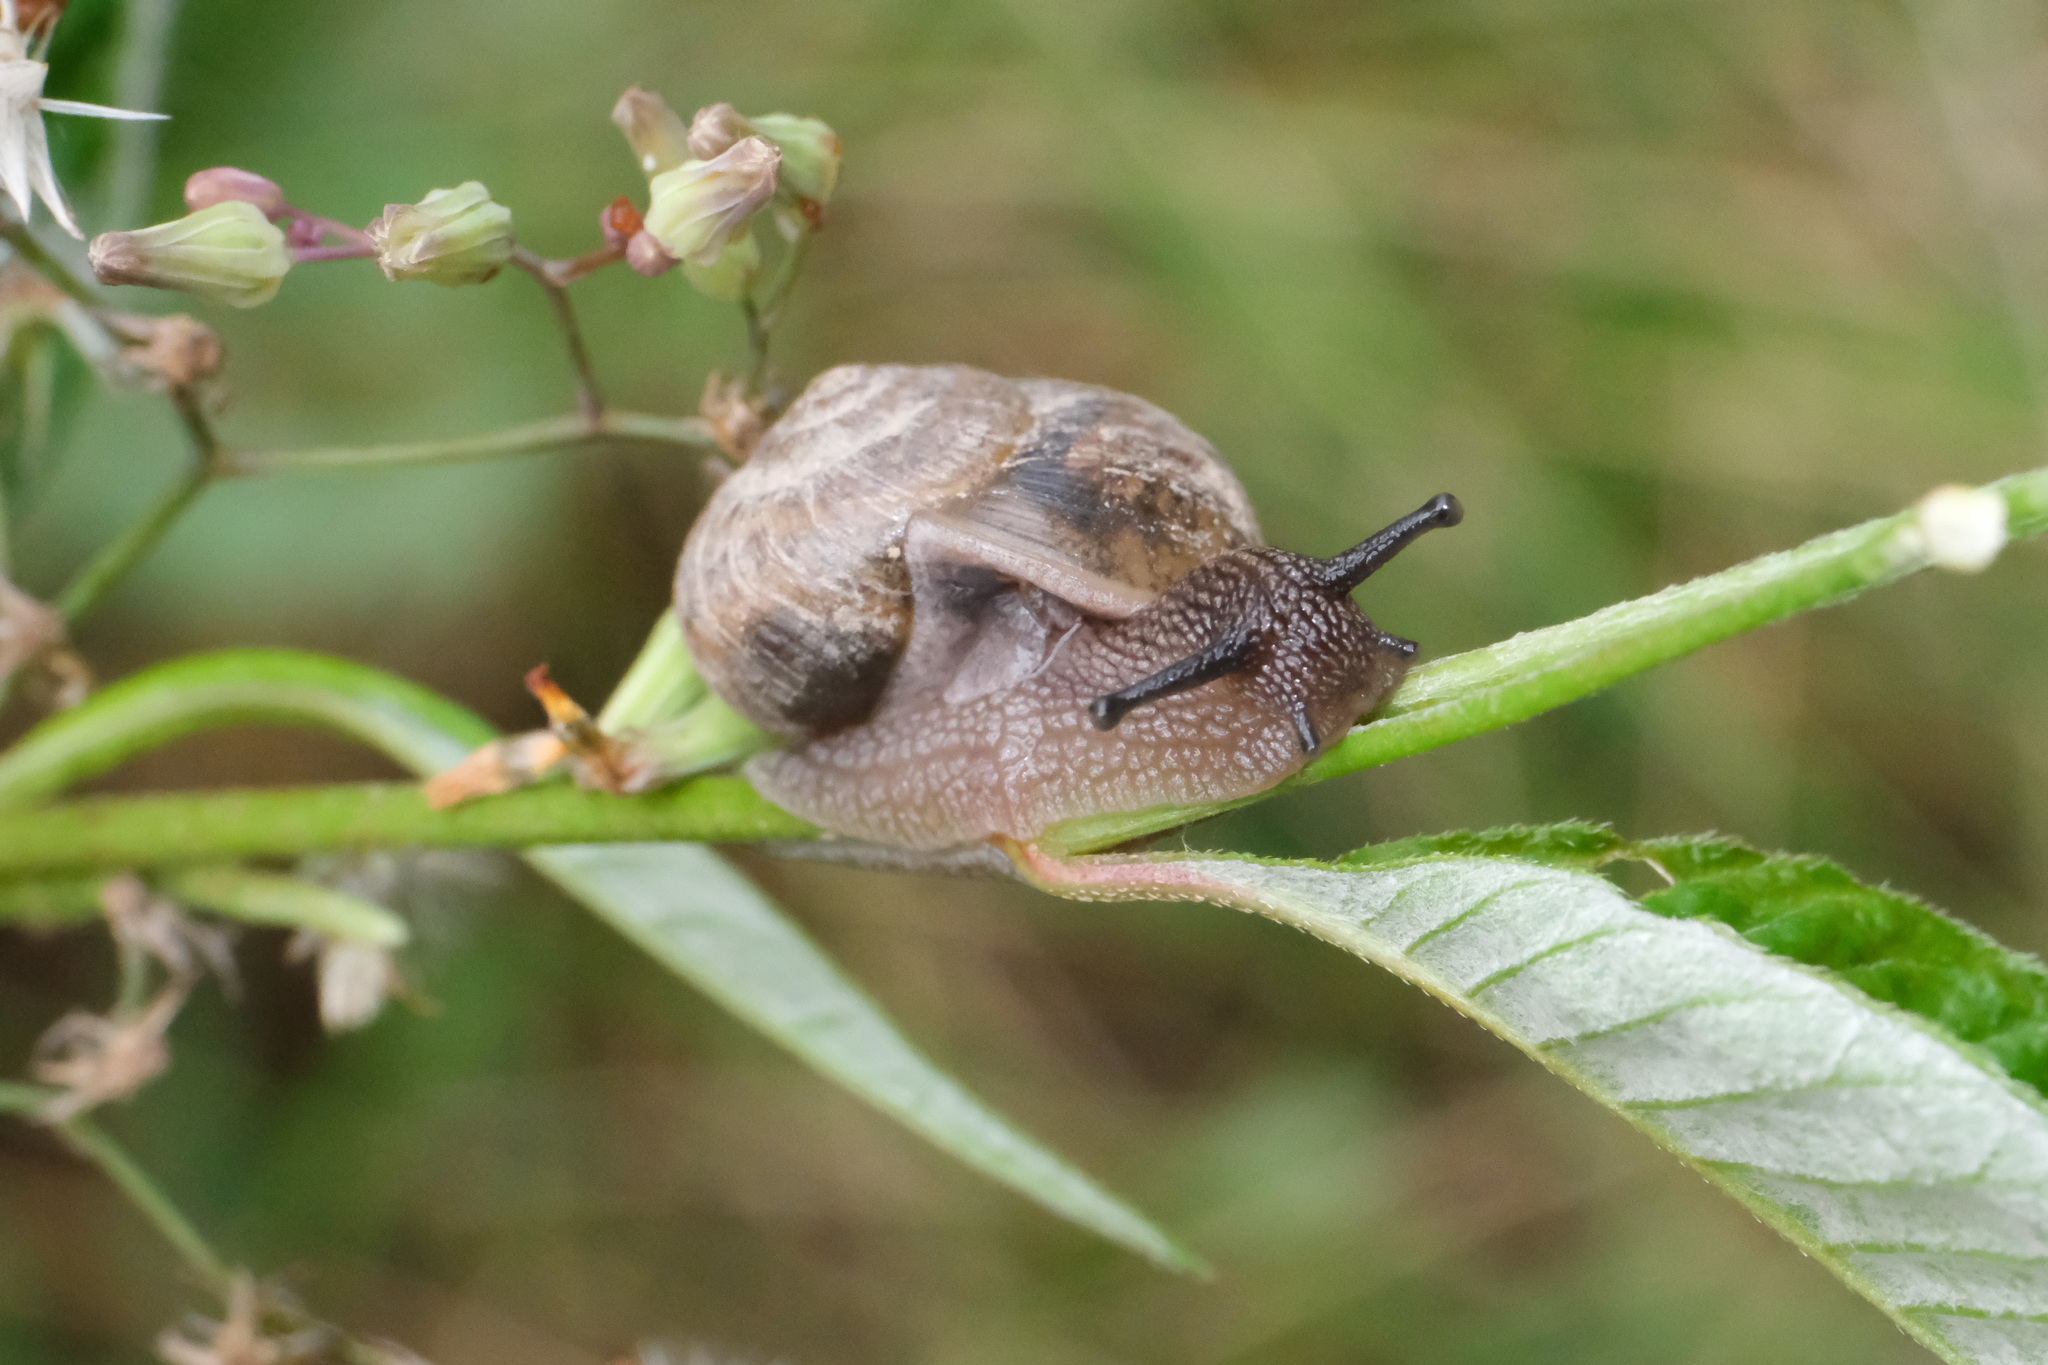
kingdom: Animalia
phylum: Mollusca
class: Gastropoda
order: Stylommatophora
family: Camaenidae
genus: Acusta
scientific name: Acusta ravida
